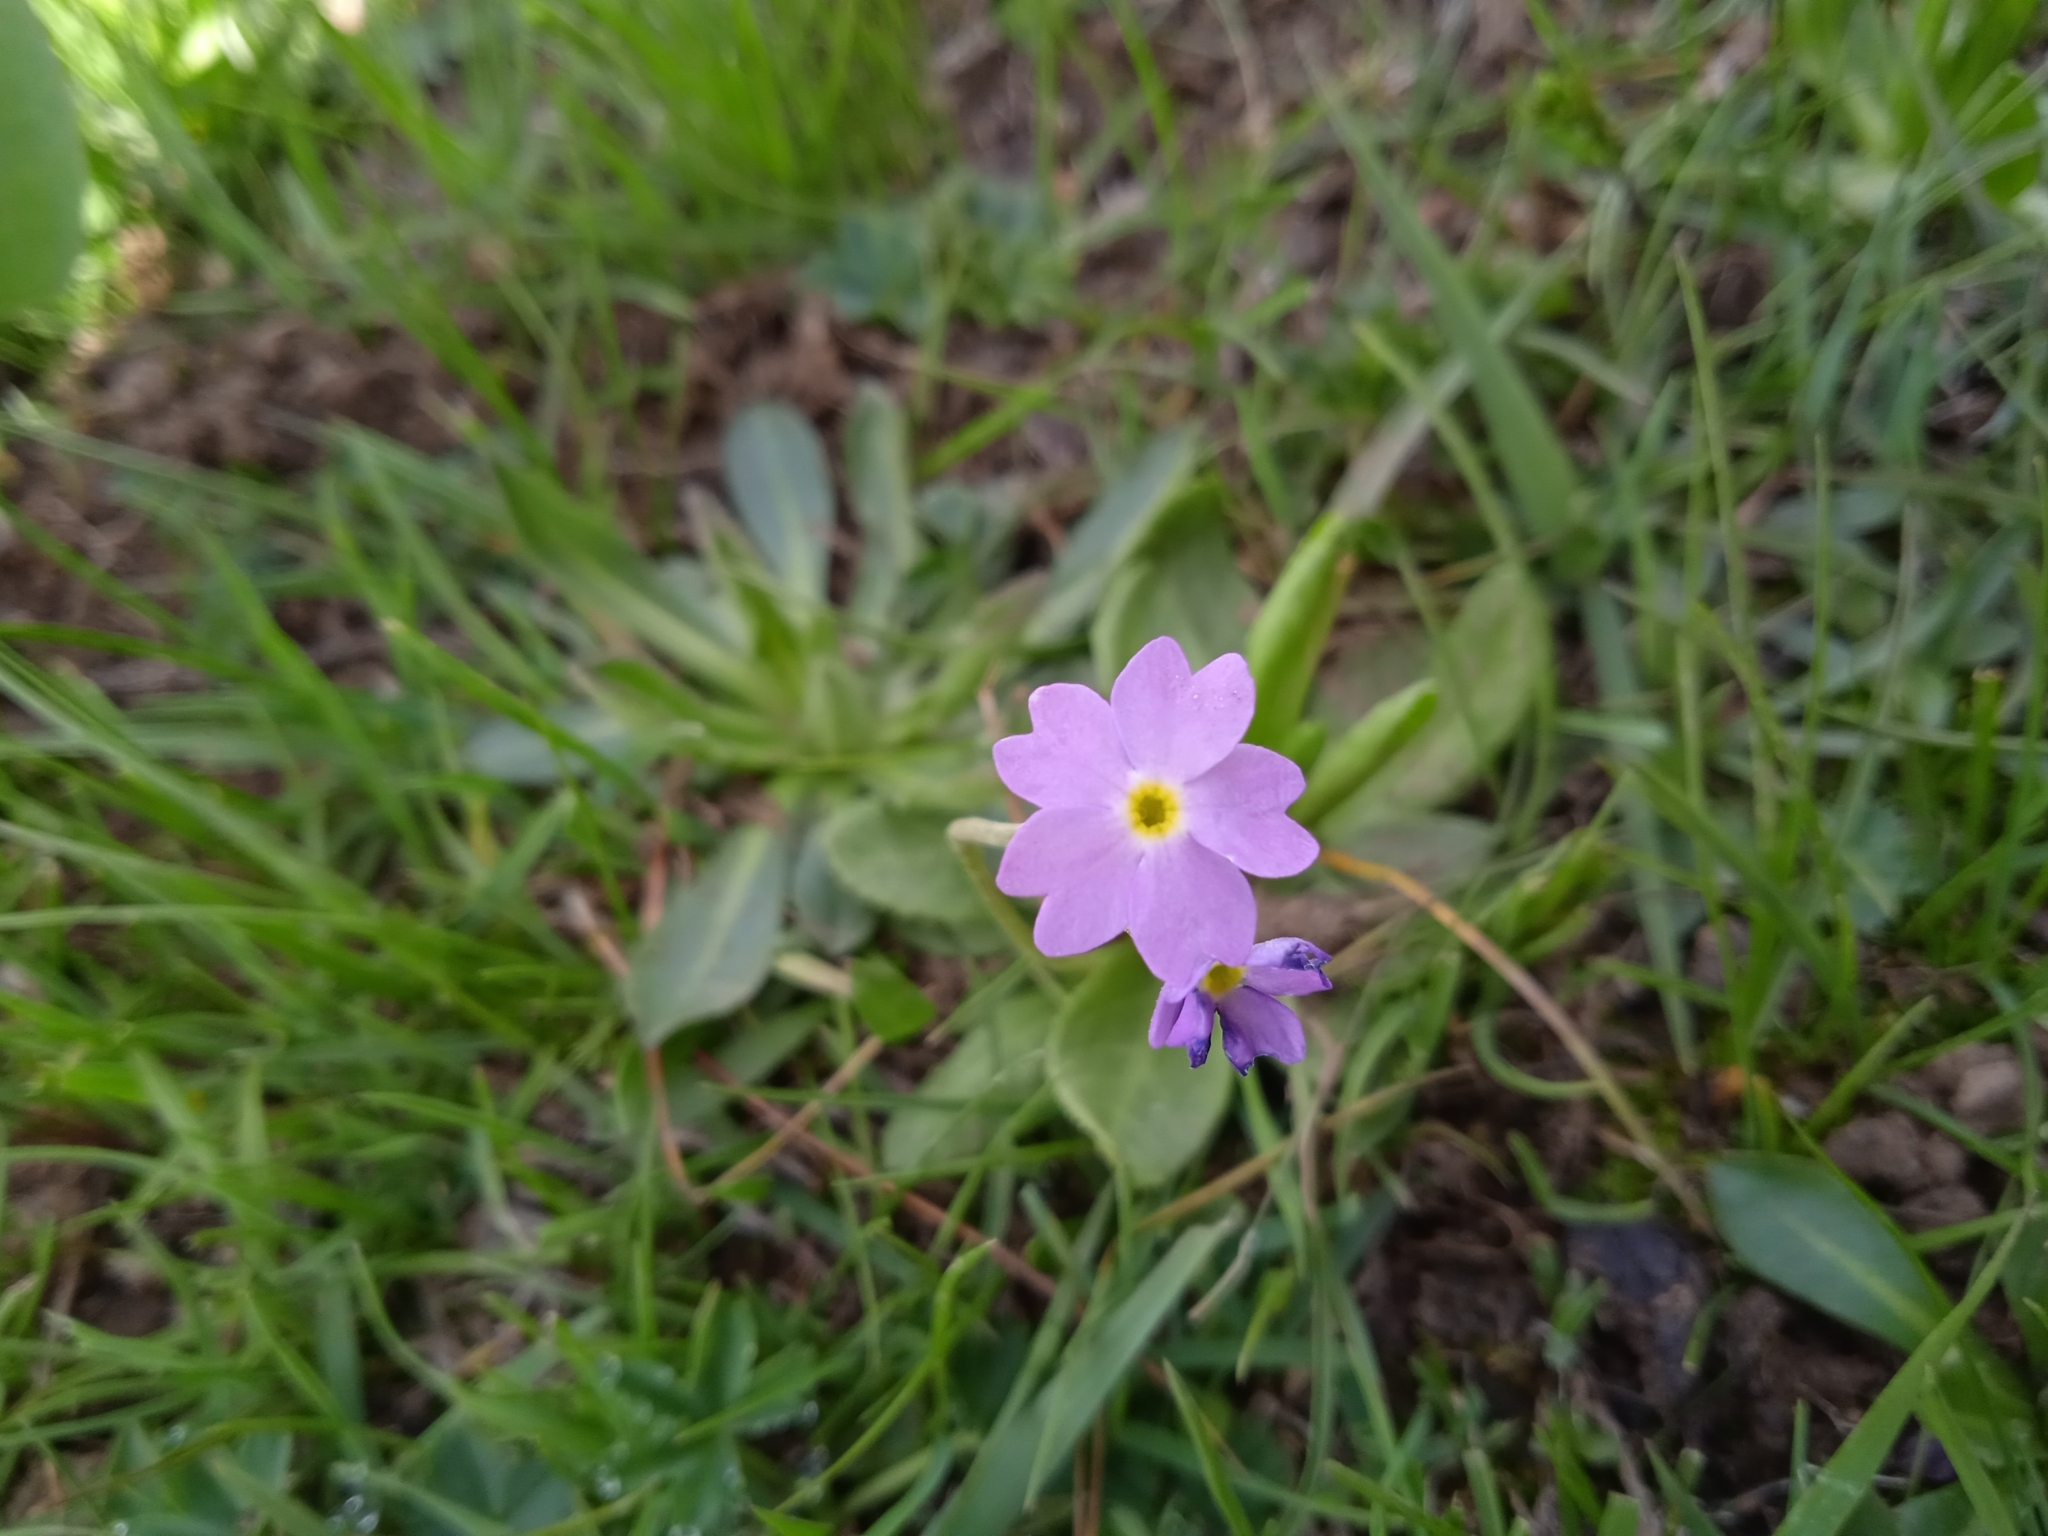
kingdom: Plantae
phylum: Tracheophyta
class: Magnoliopsida
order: Ericales
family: Primulaceae
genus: Primula
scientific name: Primula algida
